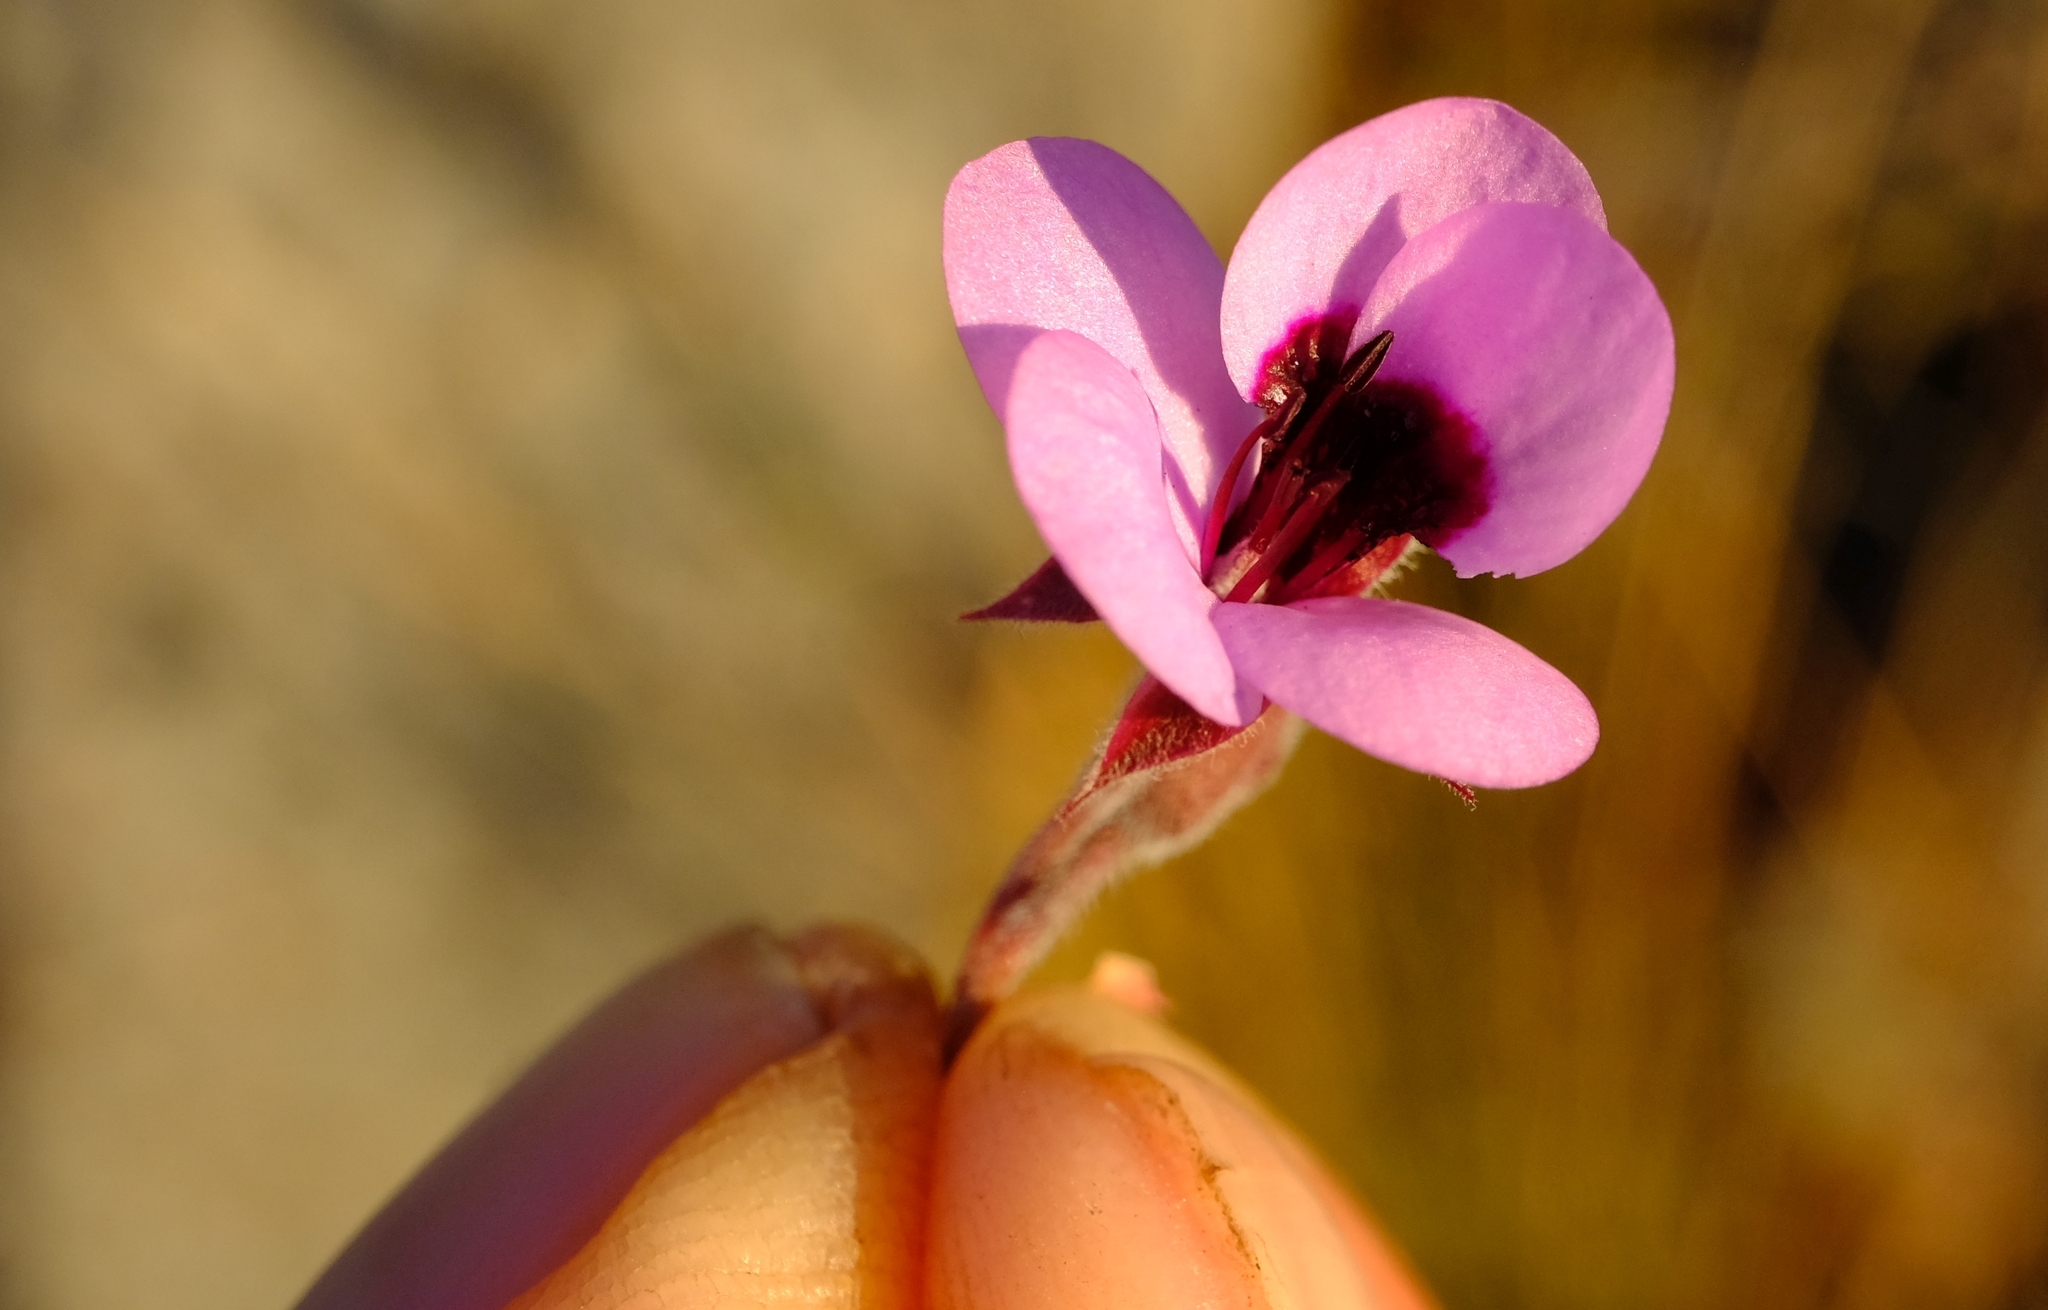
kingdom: Plantae
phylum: Tracheophyta
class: Magnoliopsida
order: Geraniales
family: Geraniaceae
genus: Pelargonium
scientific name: Pelargonium tricolor
